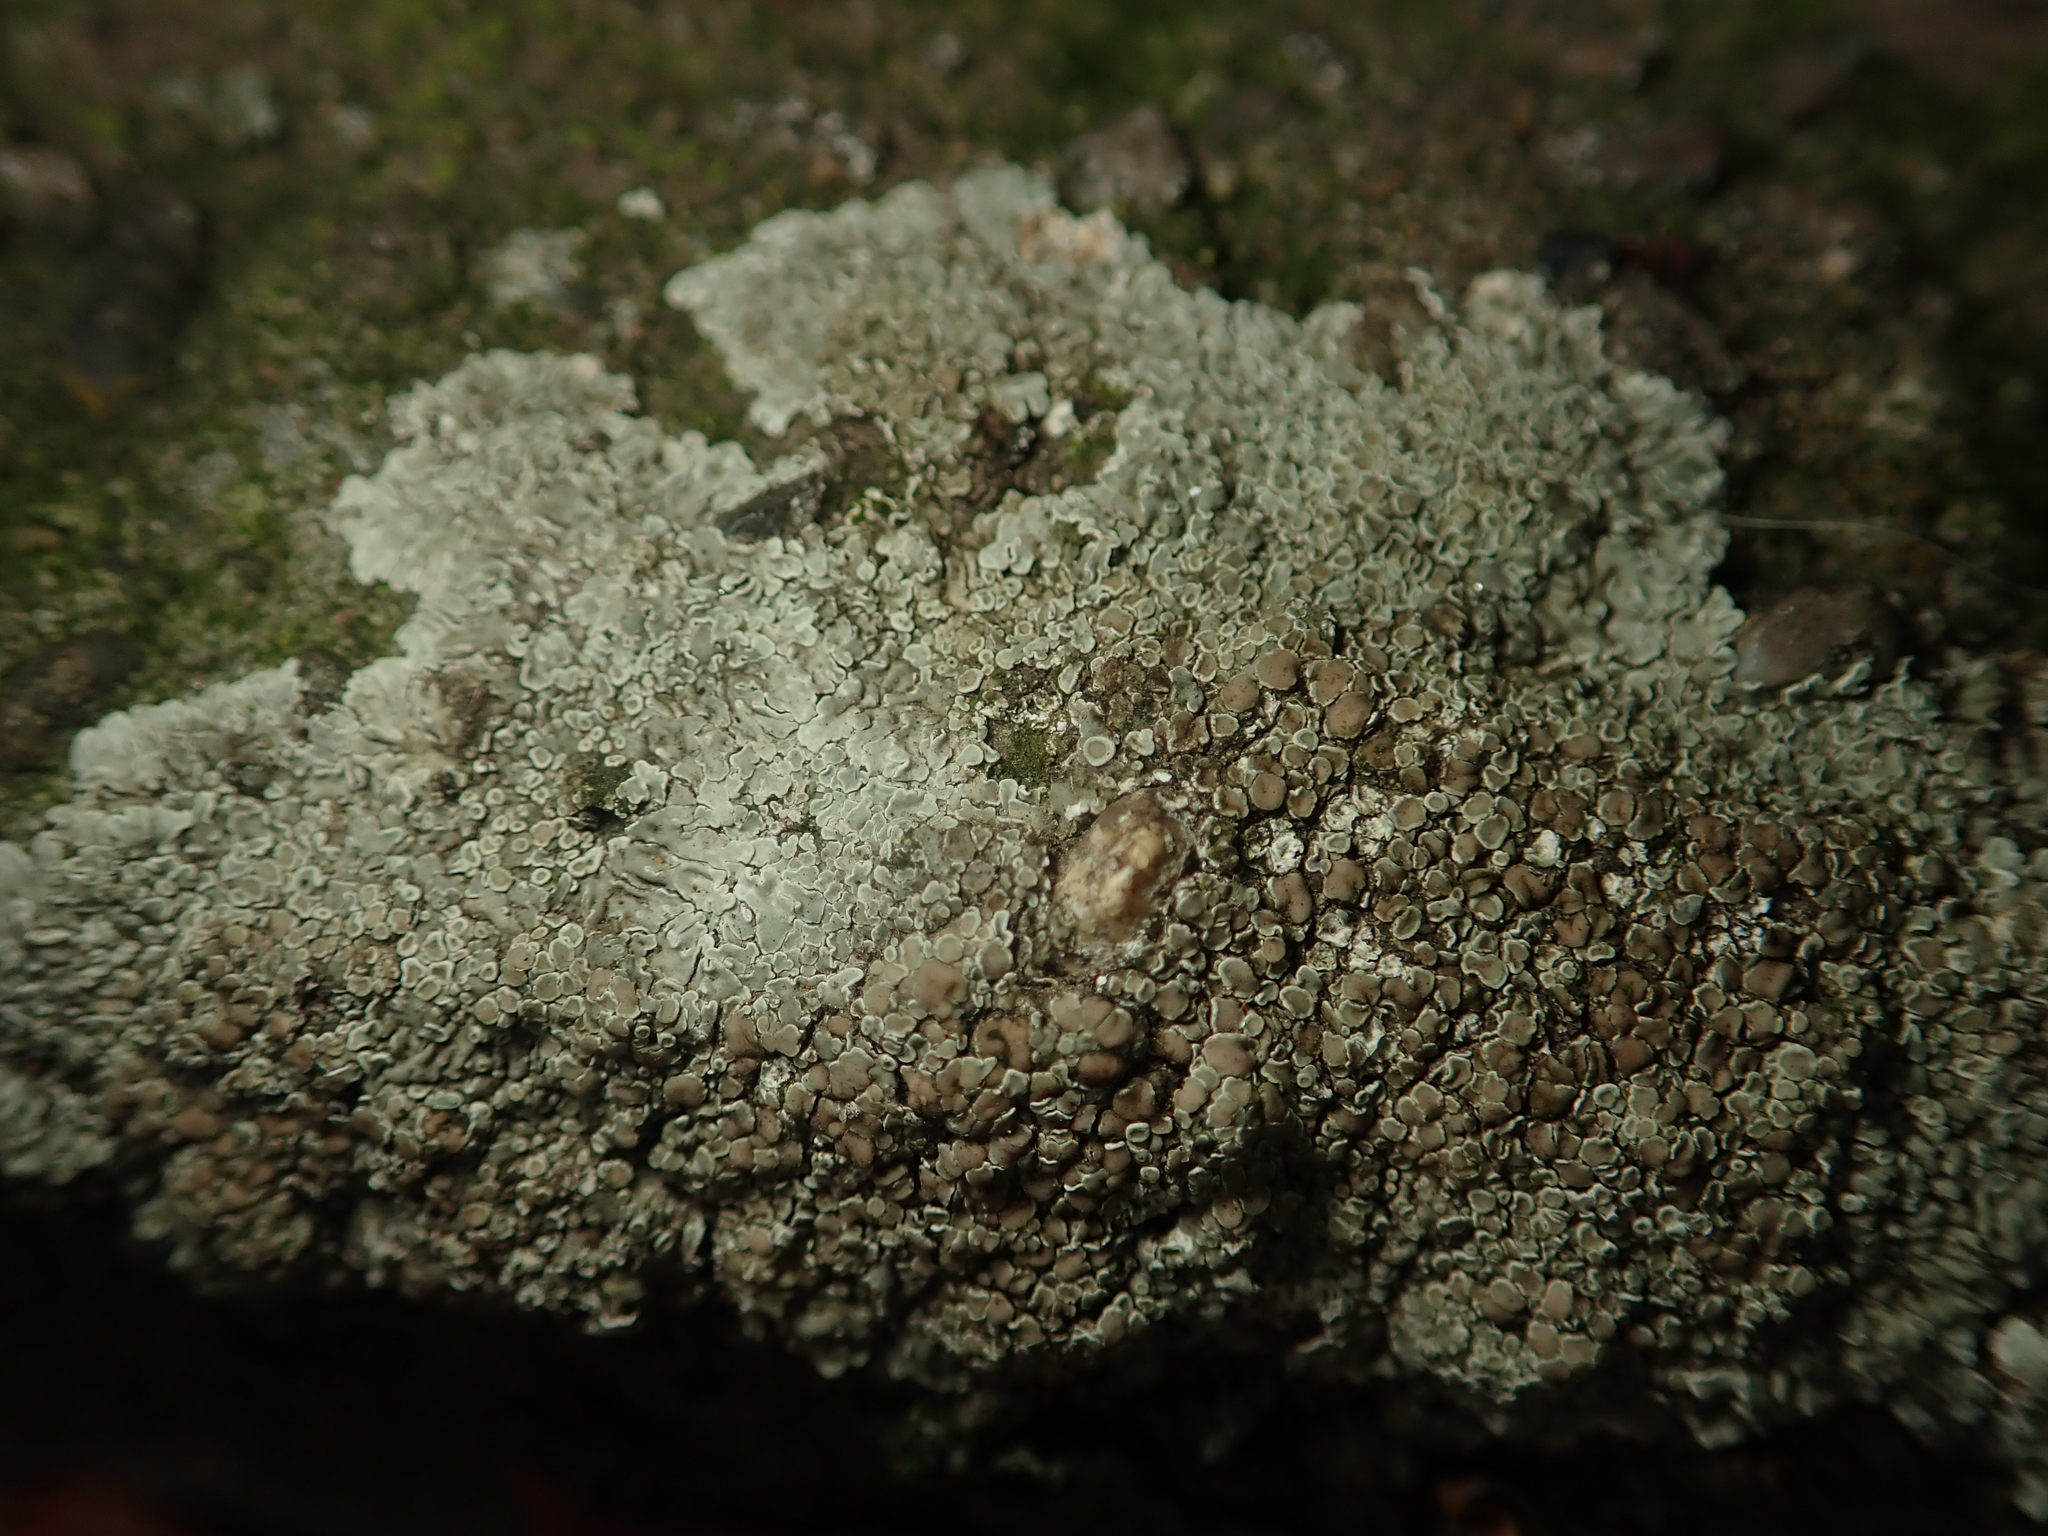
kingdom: Fungi
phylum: Ascomycota
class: Lecanoromycetes
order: Lecanorales
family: Lecanoraceae
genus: Protoparmeliopsis
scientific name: Protoparmeliopsis muralis
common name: Stonewall rim lichen
